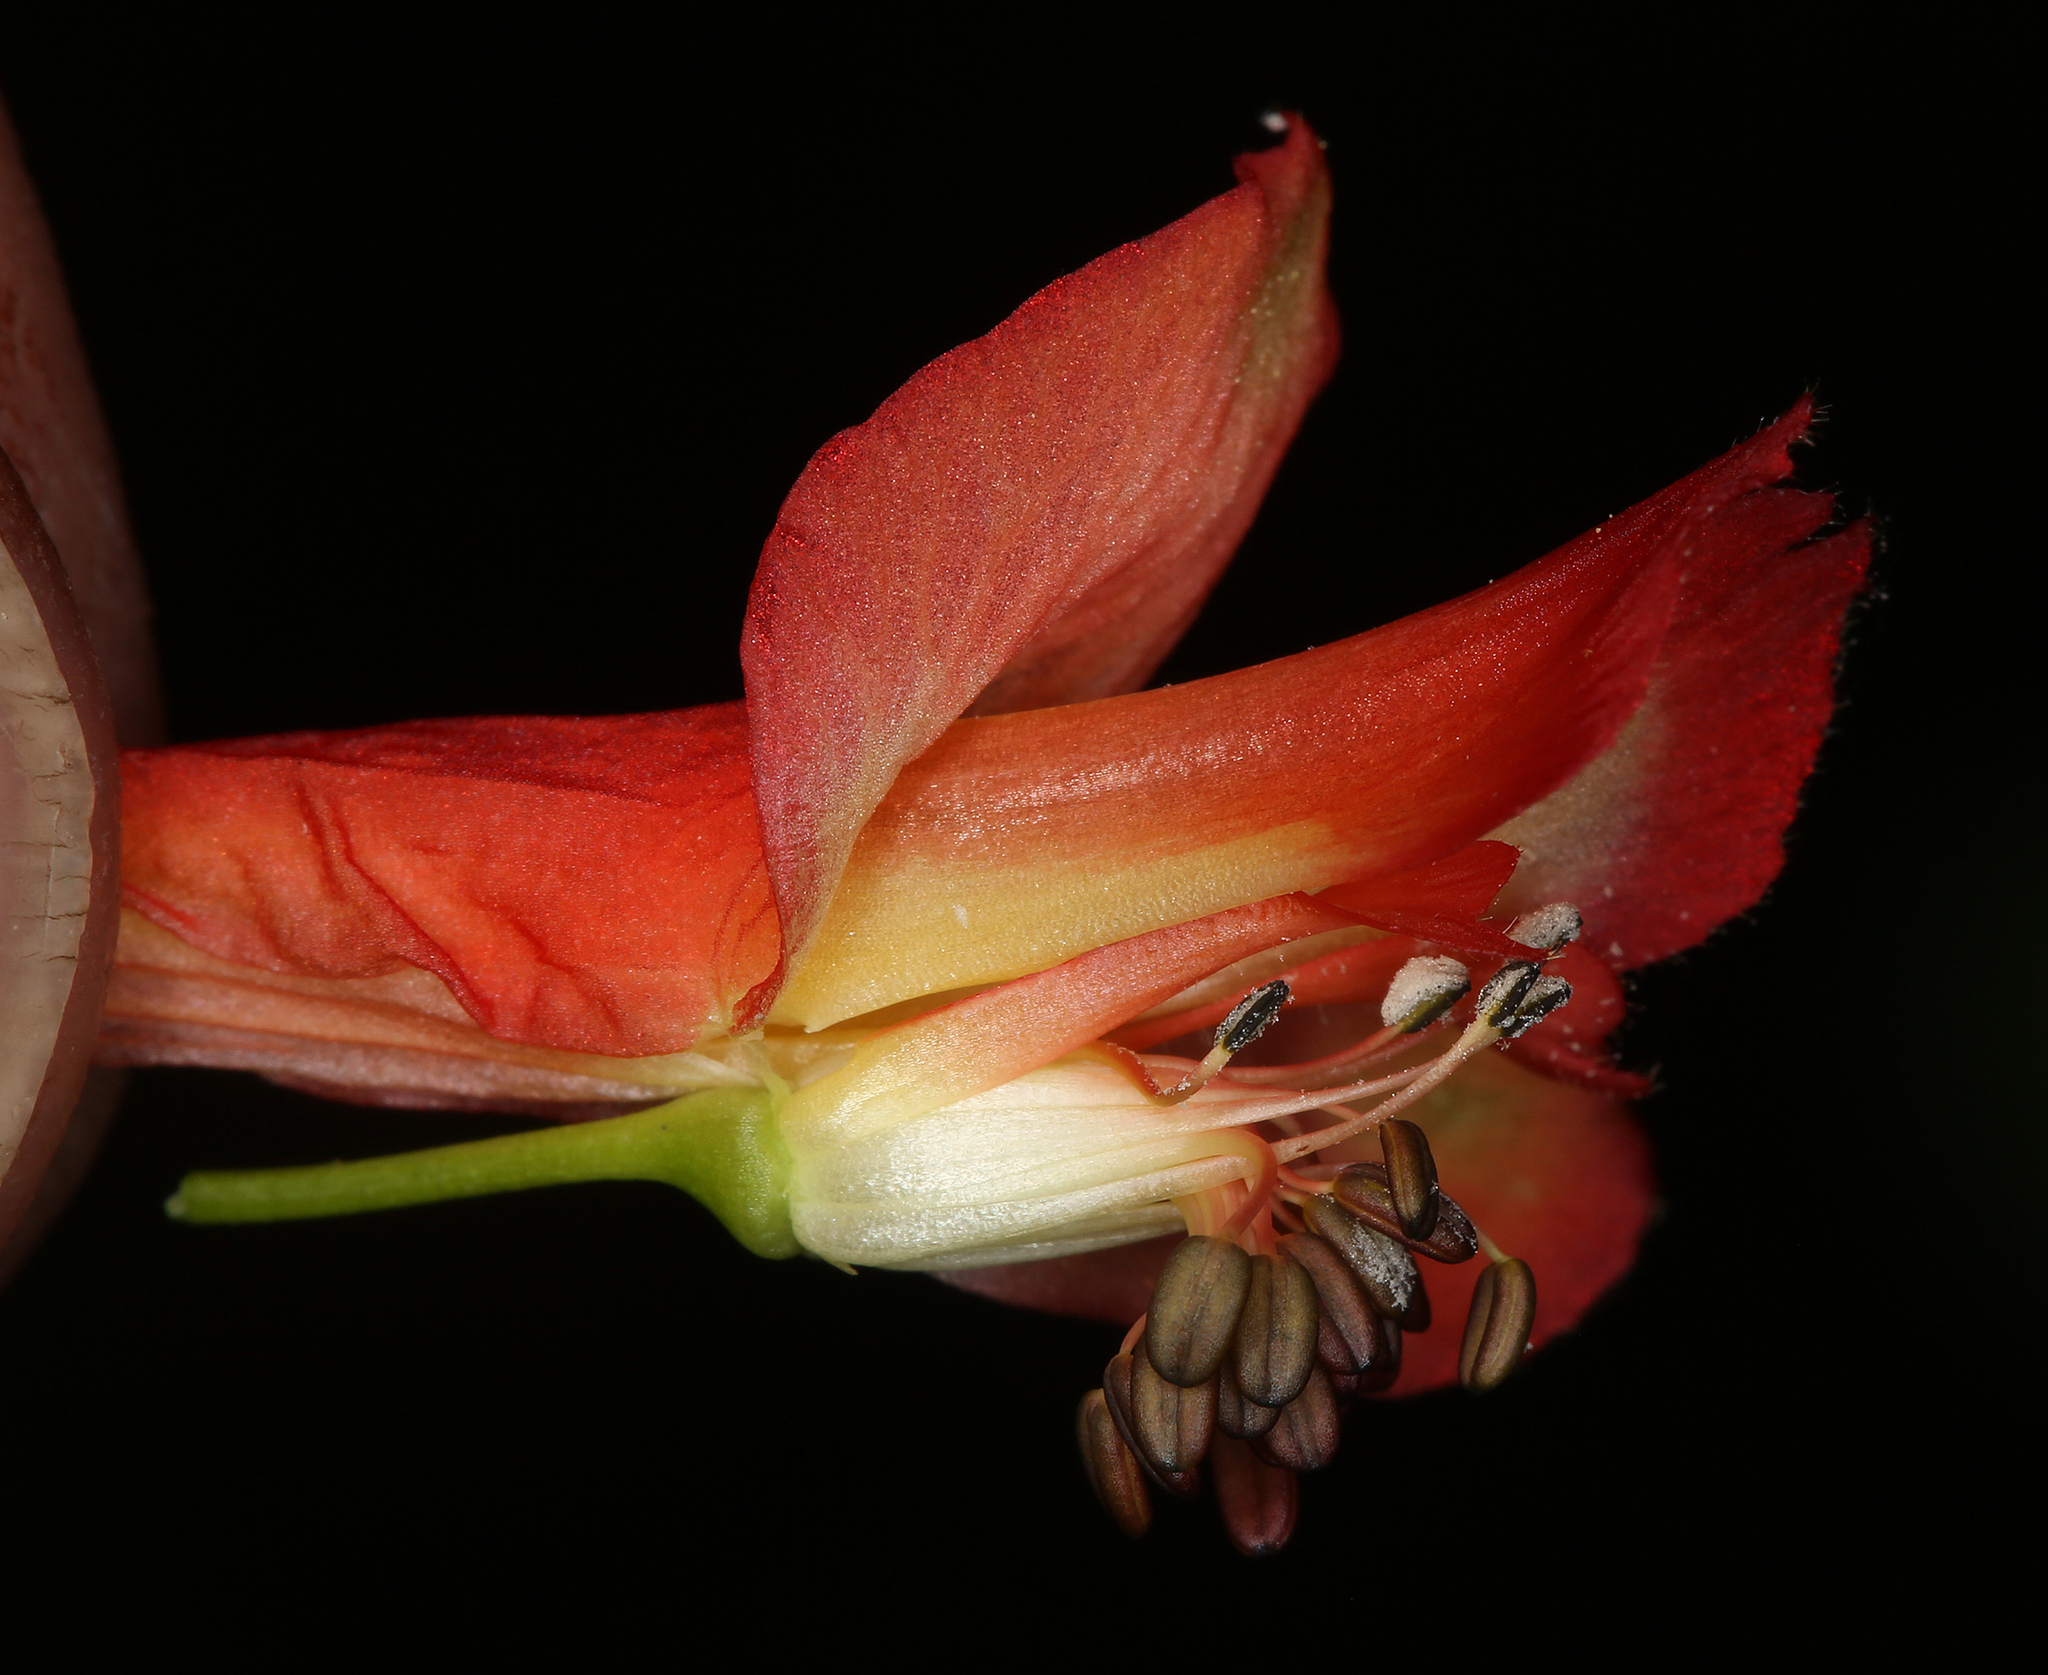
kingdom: Plantae
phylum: Tracheophyta
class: Magnoliopsida
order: Ranunculales
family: Ranunculaceae
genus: Delphinium
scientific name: Delphinium nudicaule
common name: Red larkspur
